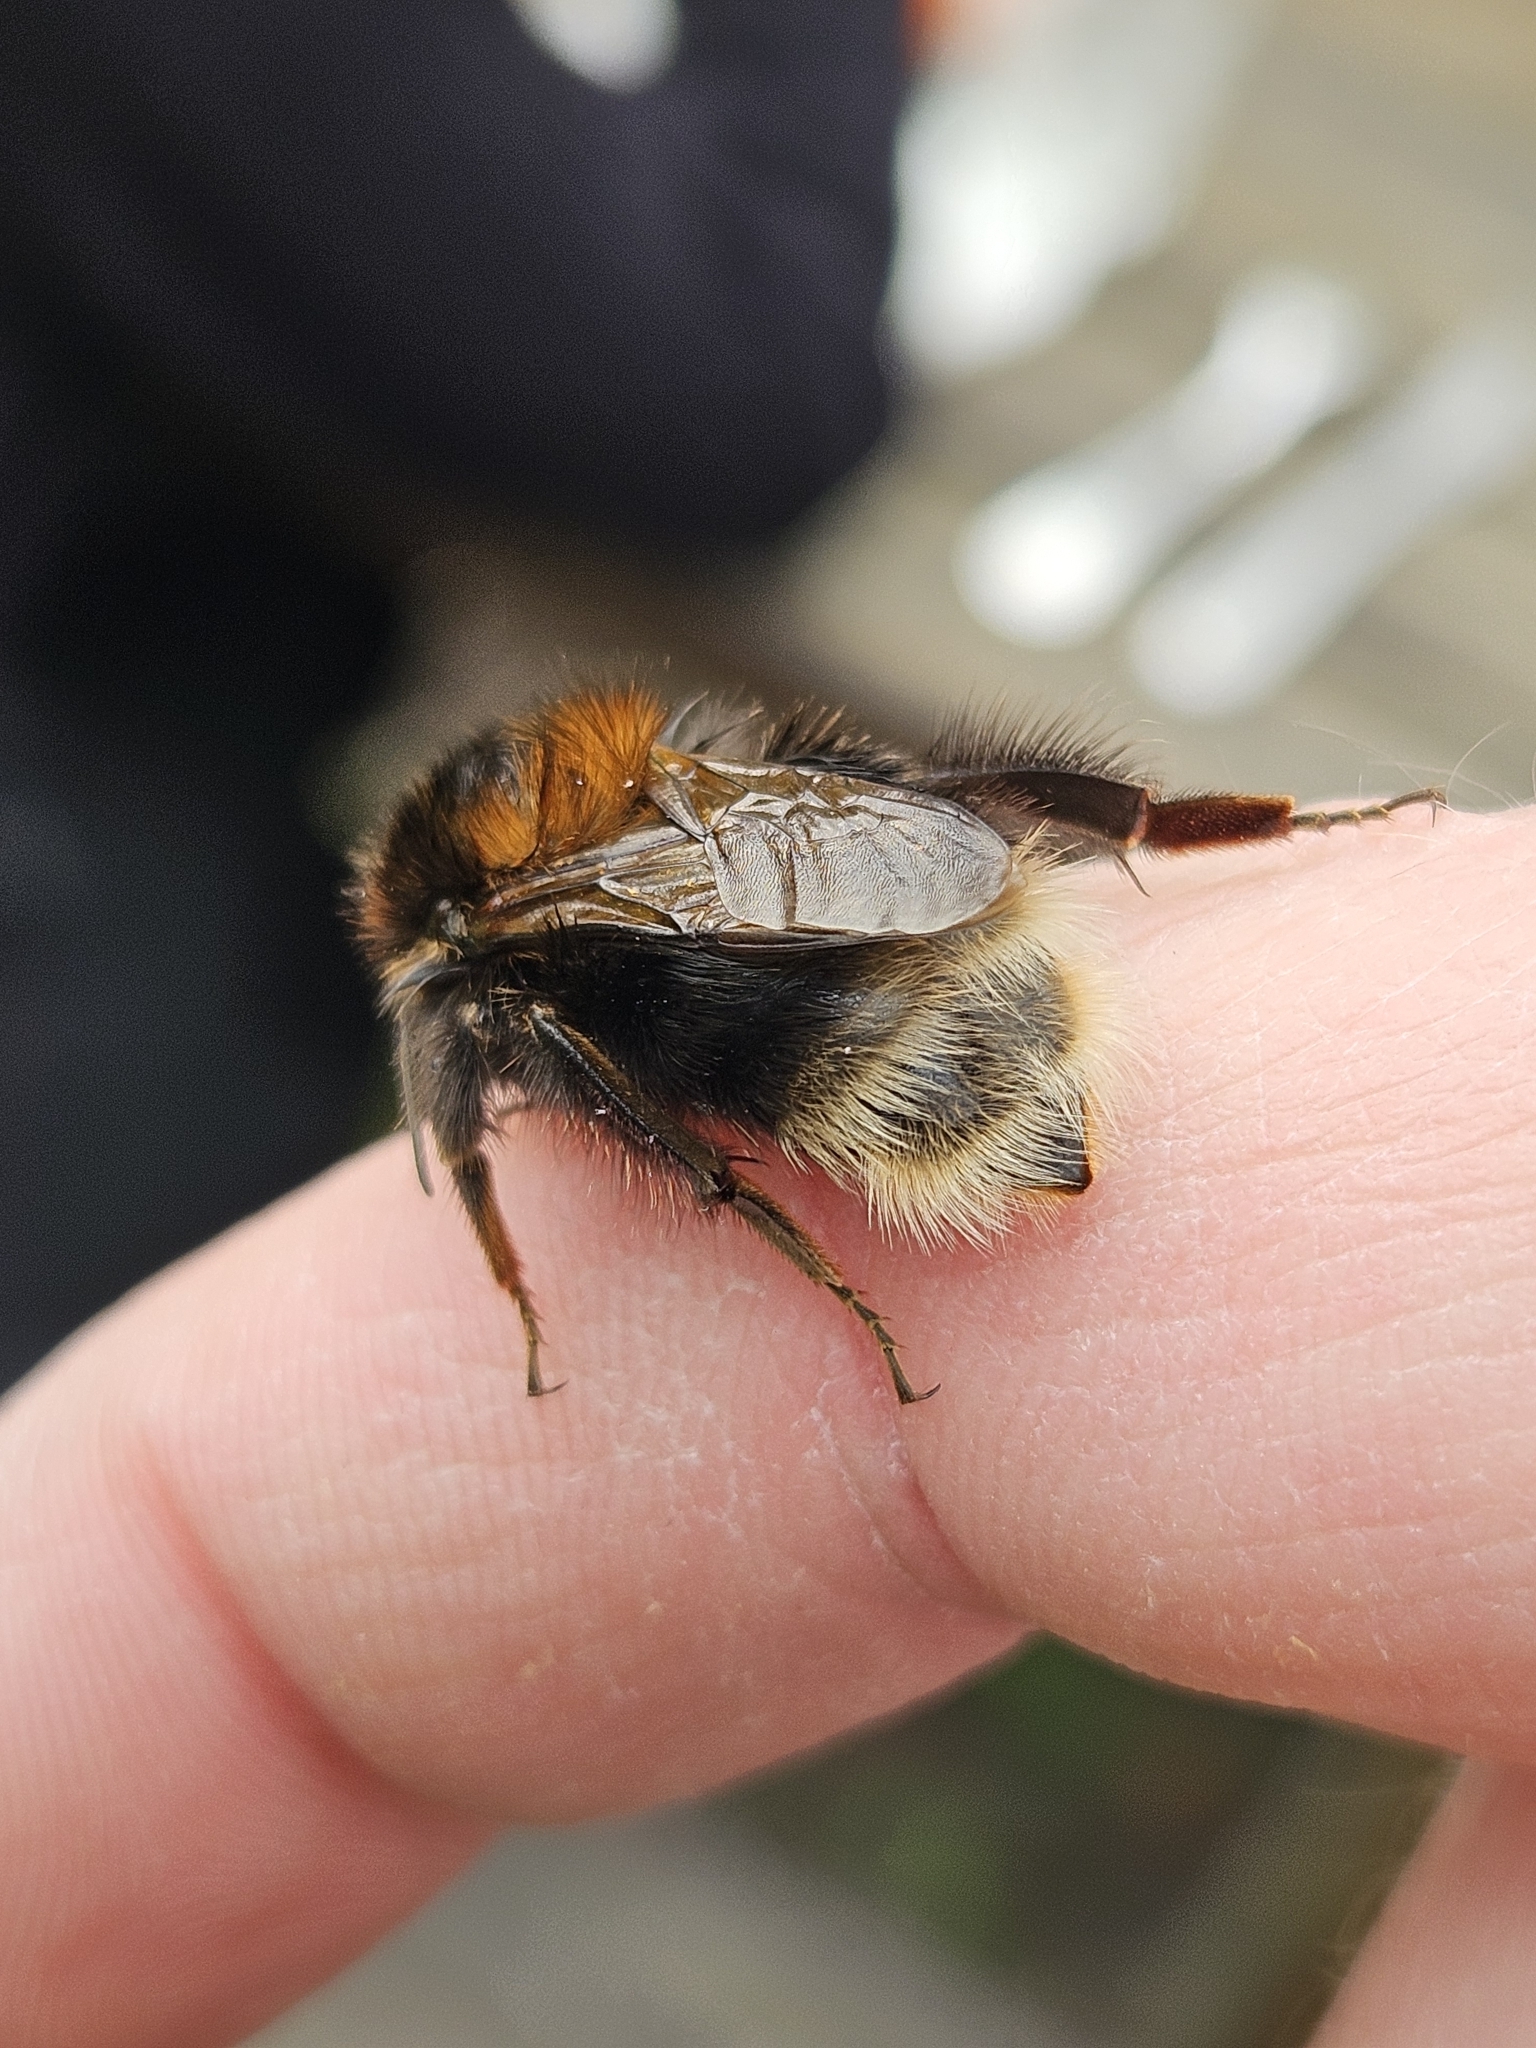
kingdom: Animalia
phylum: Arthropoda
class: Insecta
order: Hymenoptera
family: Apidae
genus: Bombus
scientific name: Bombus hypnorum
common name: New garden bumblebee
